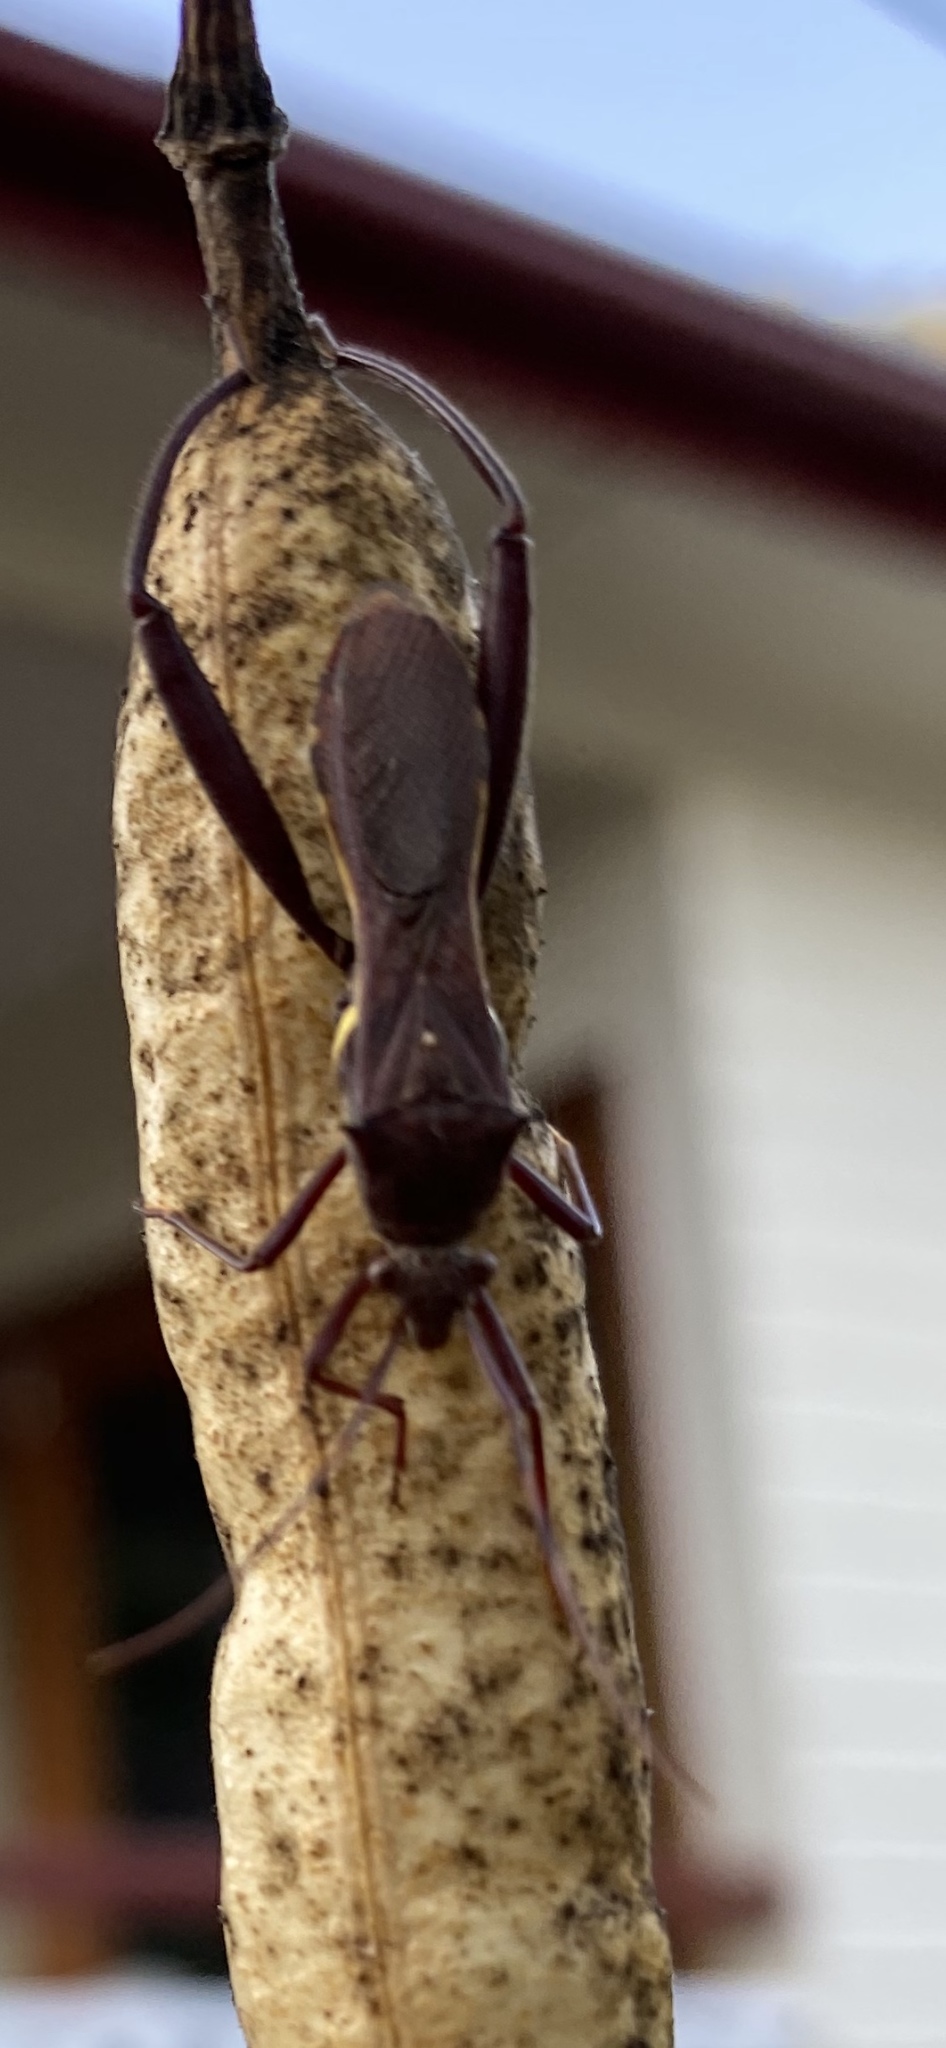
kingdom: Animalia
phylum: Arthropoda
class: Insecta
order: Hemiptera
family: Alydidae
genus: Riptortus
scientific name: Riptortus serripes
